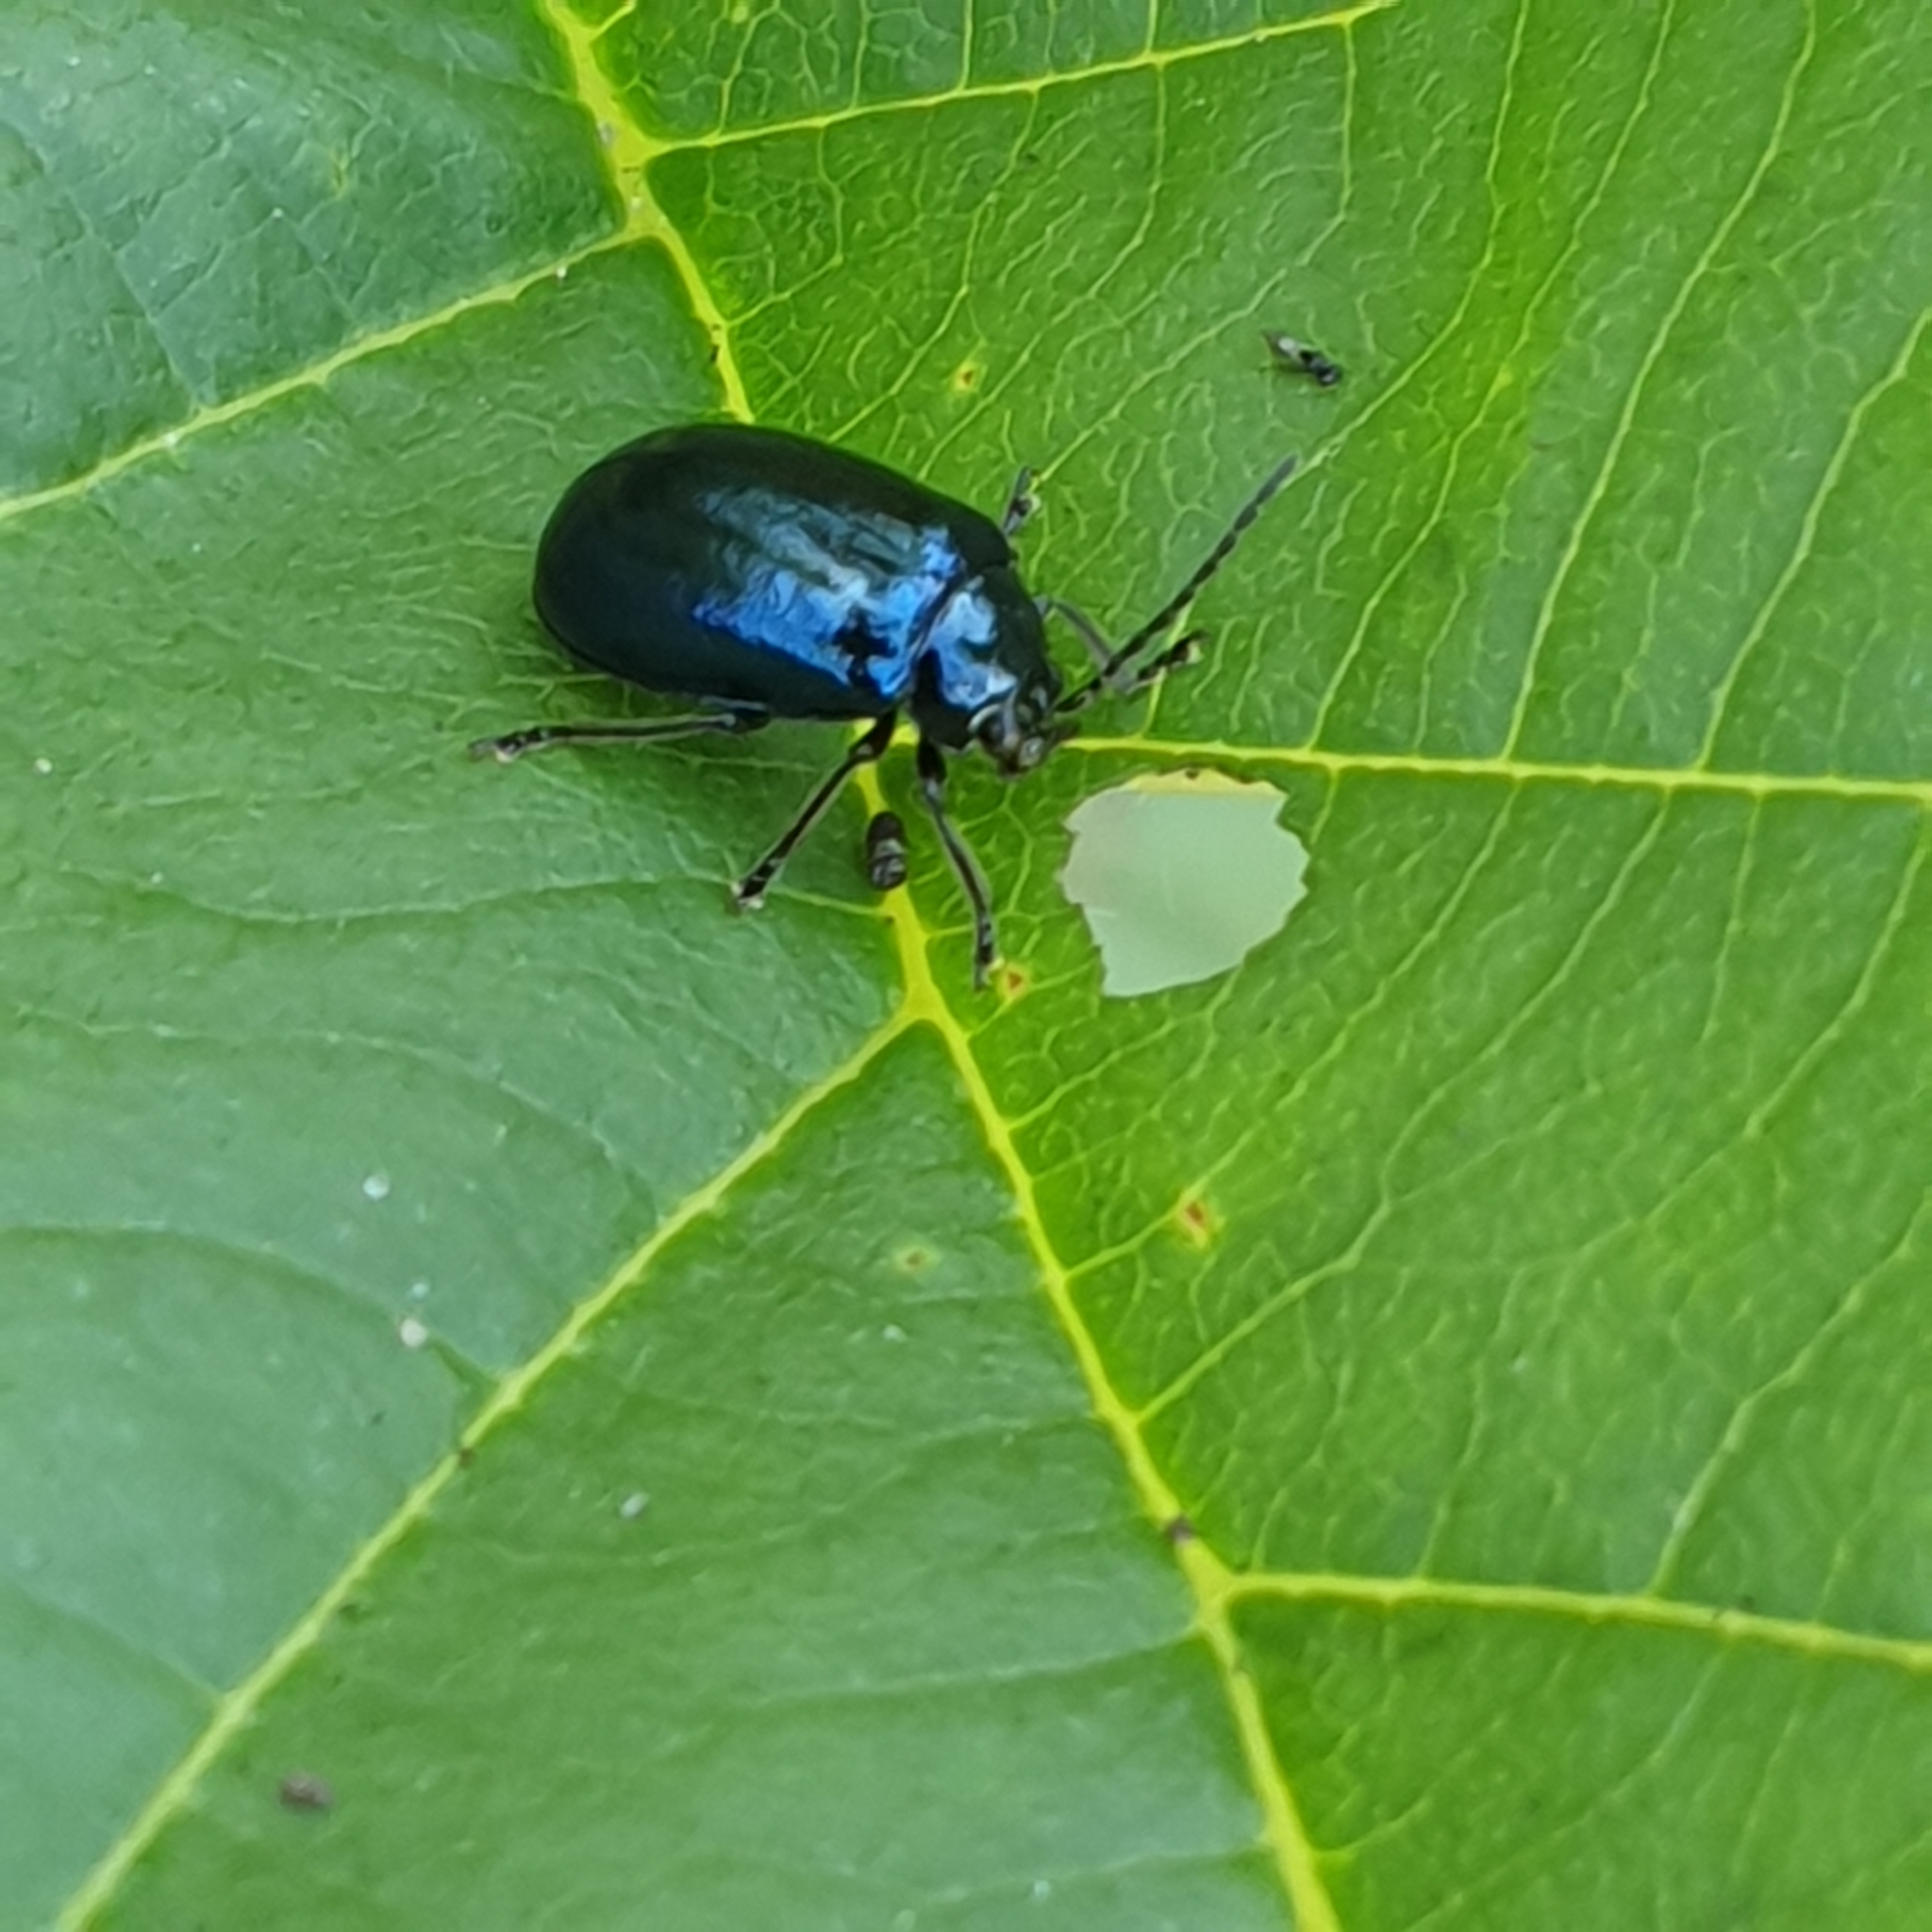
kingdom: Animalia
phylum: Arthropoda
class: Insecta
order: Coleoptera
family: Chrysomelidae
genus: Agelastica
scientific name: Agelastica alni
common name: Alder leaf beetle
